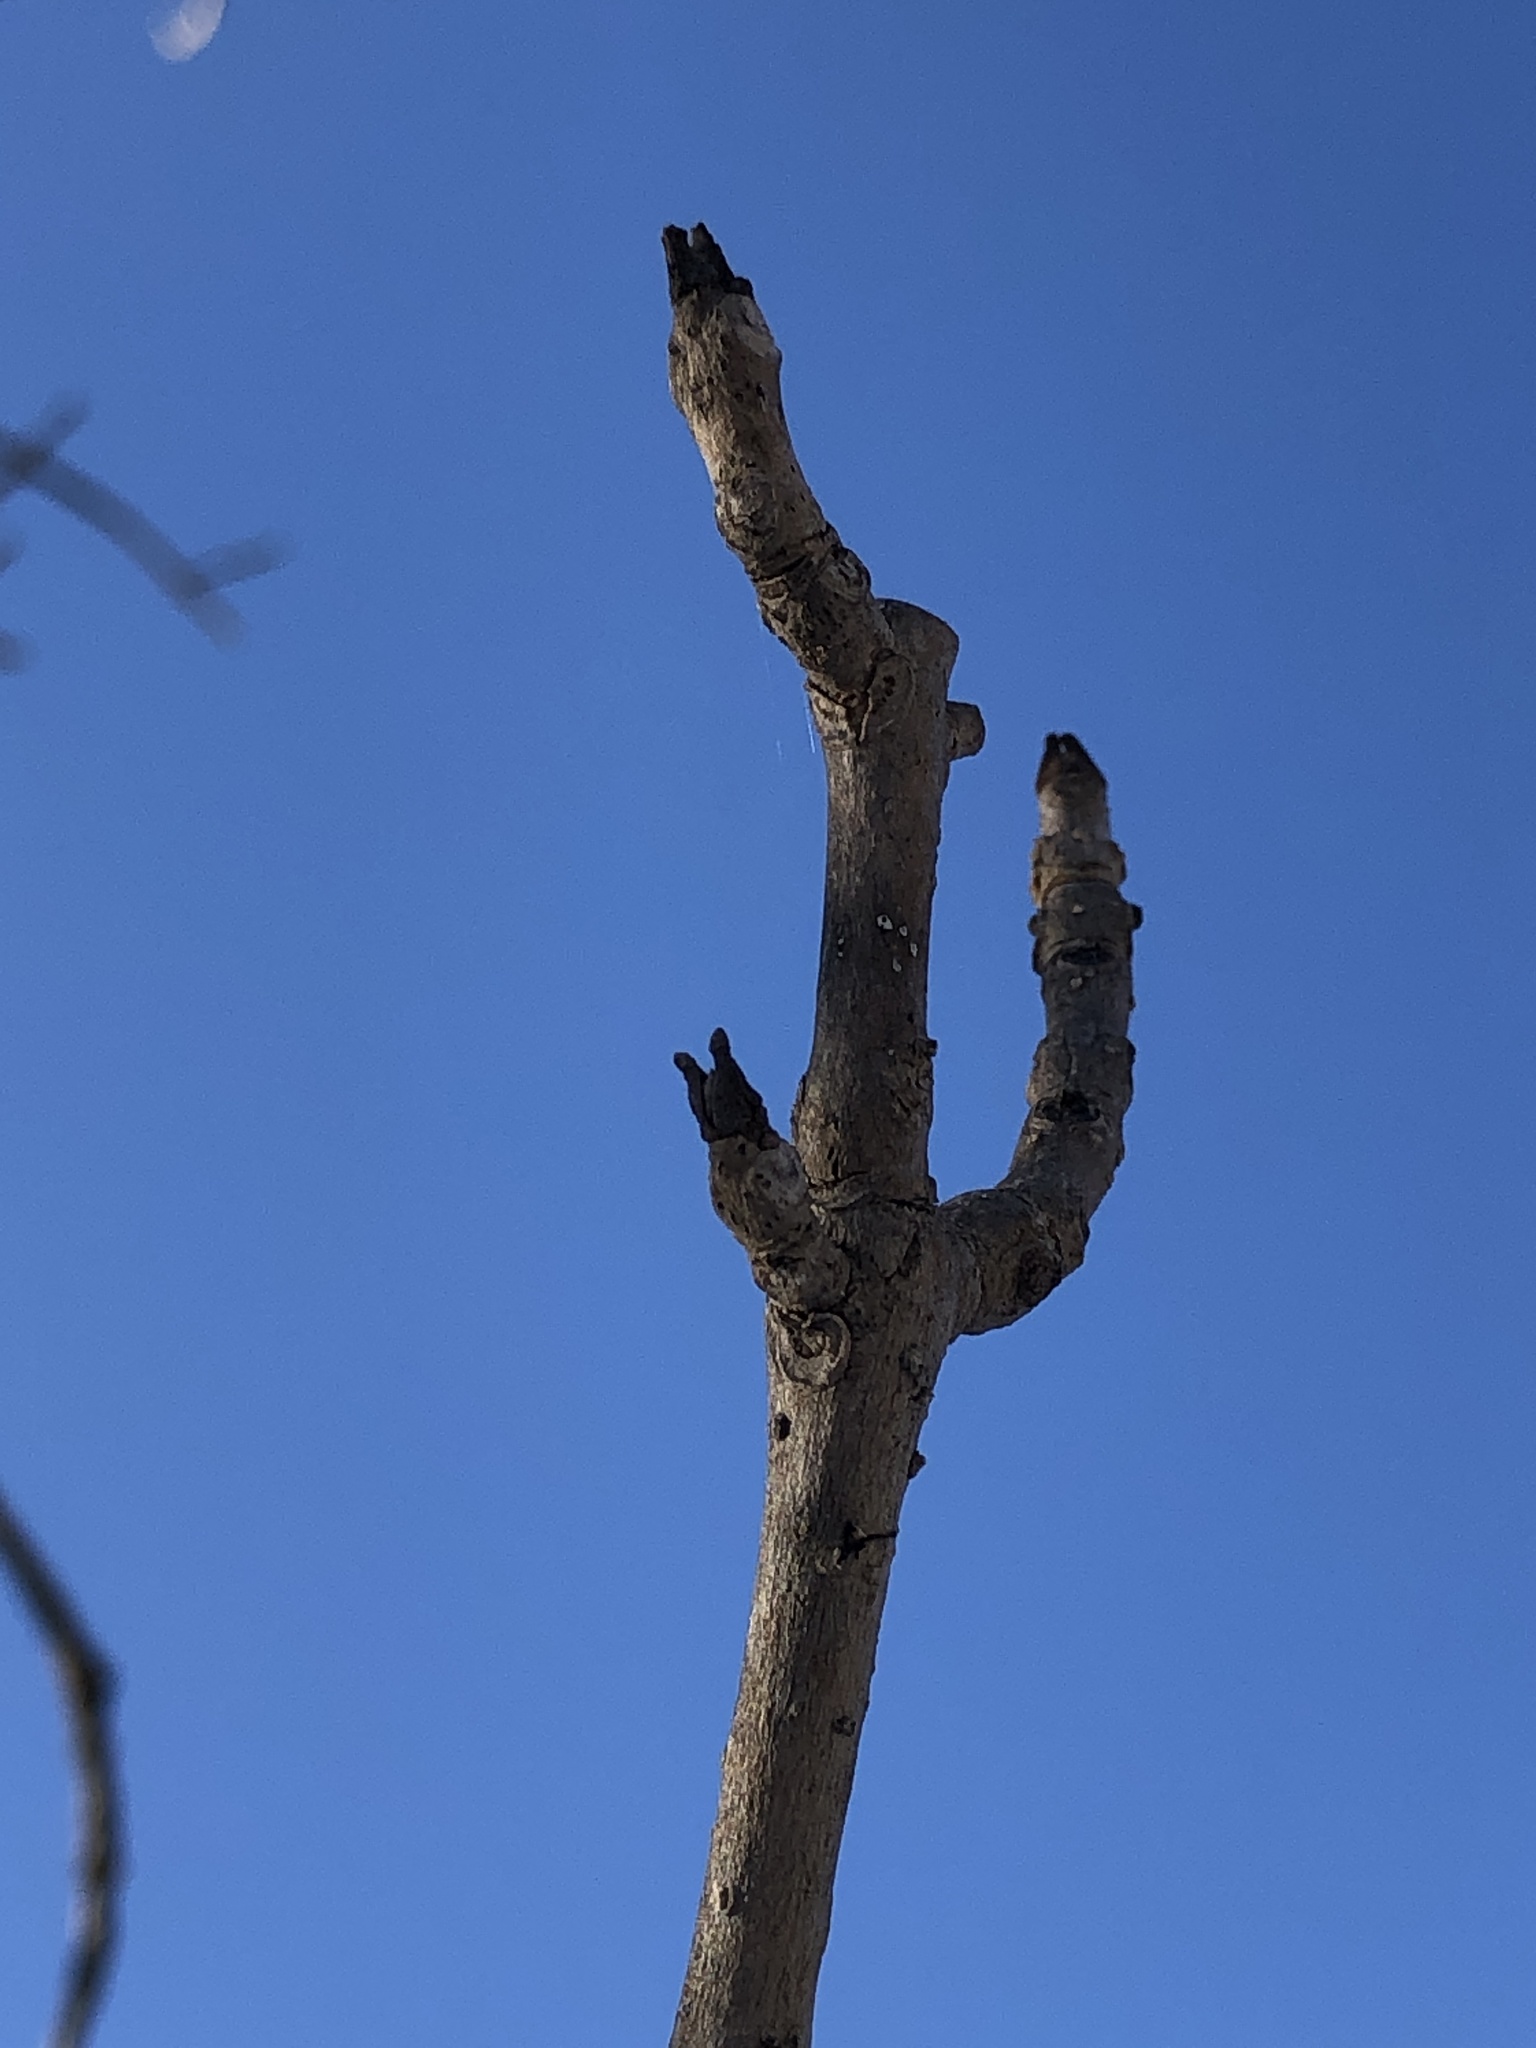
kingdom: Plantae
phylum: Tracheophyta
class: Magnoliopsida
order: Lamiales
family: Oleaceae
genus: Fraxinus
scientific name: Fraxinus nigra
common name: Black ash
